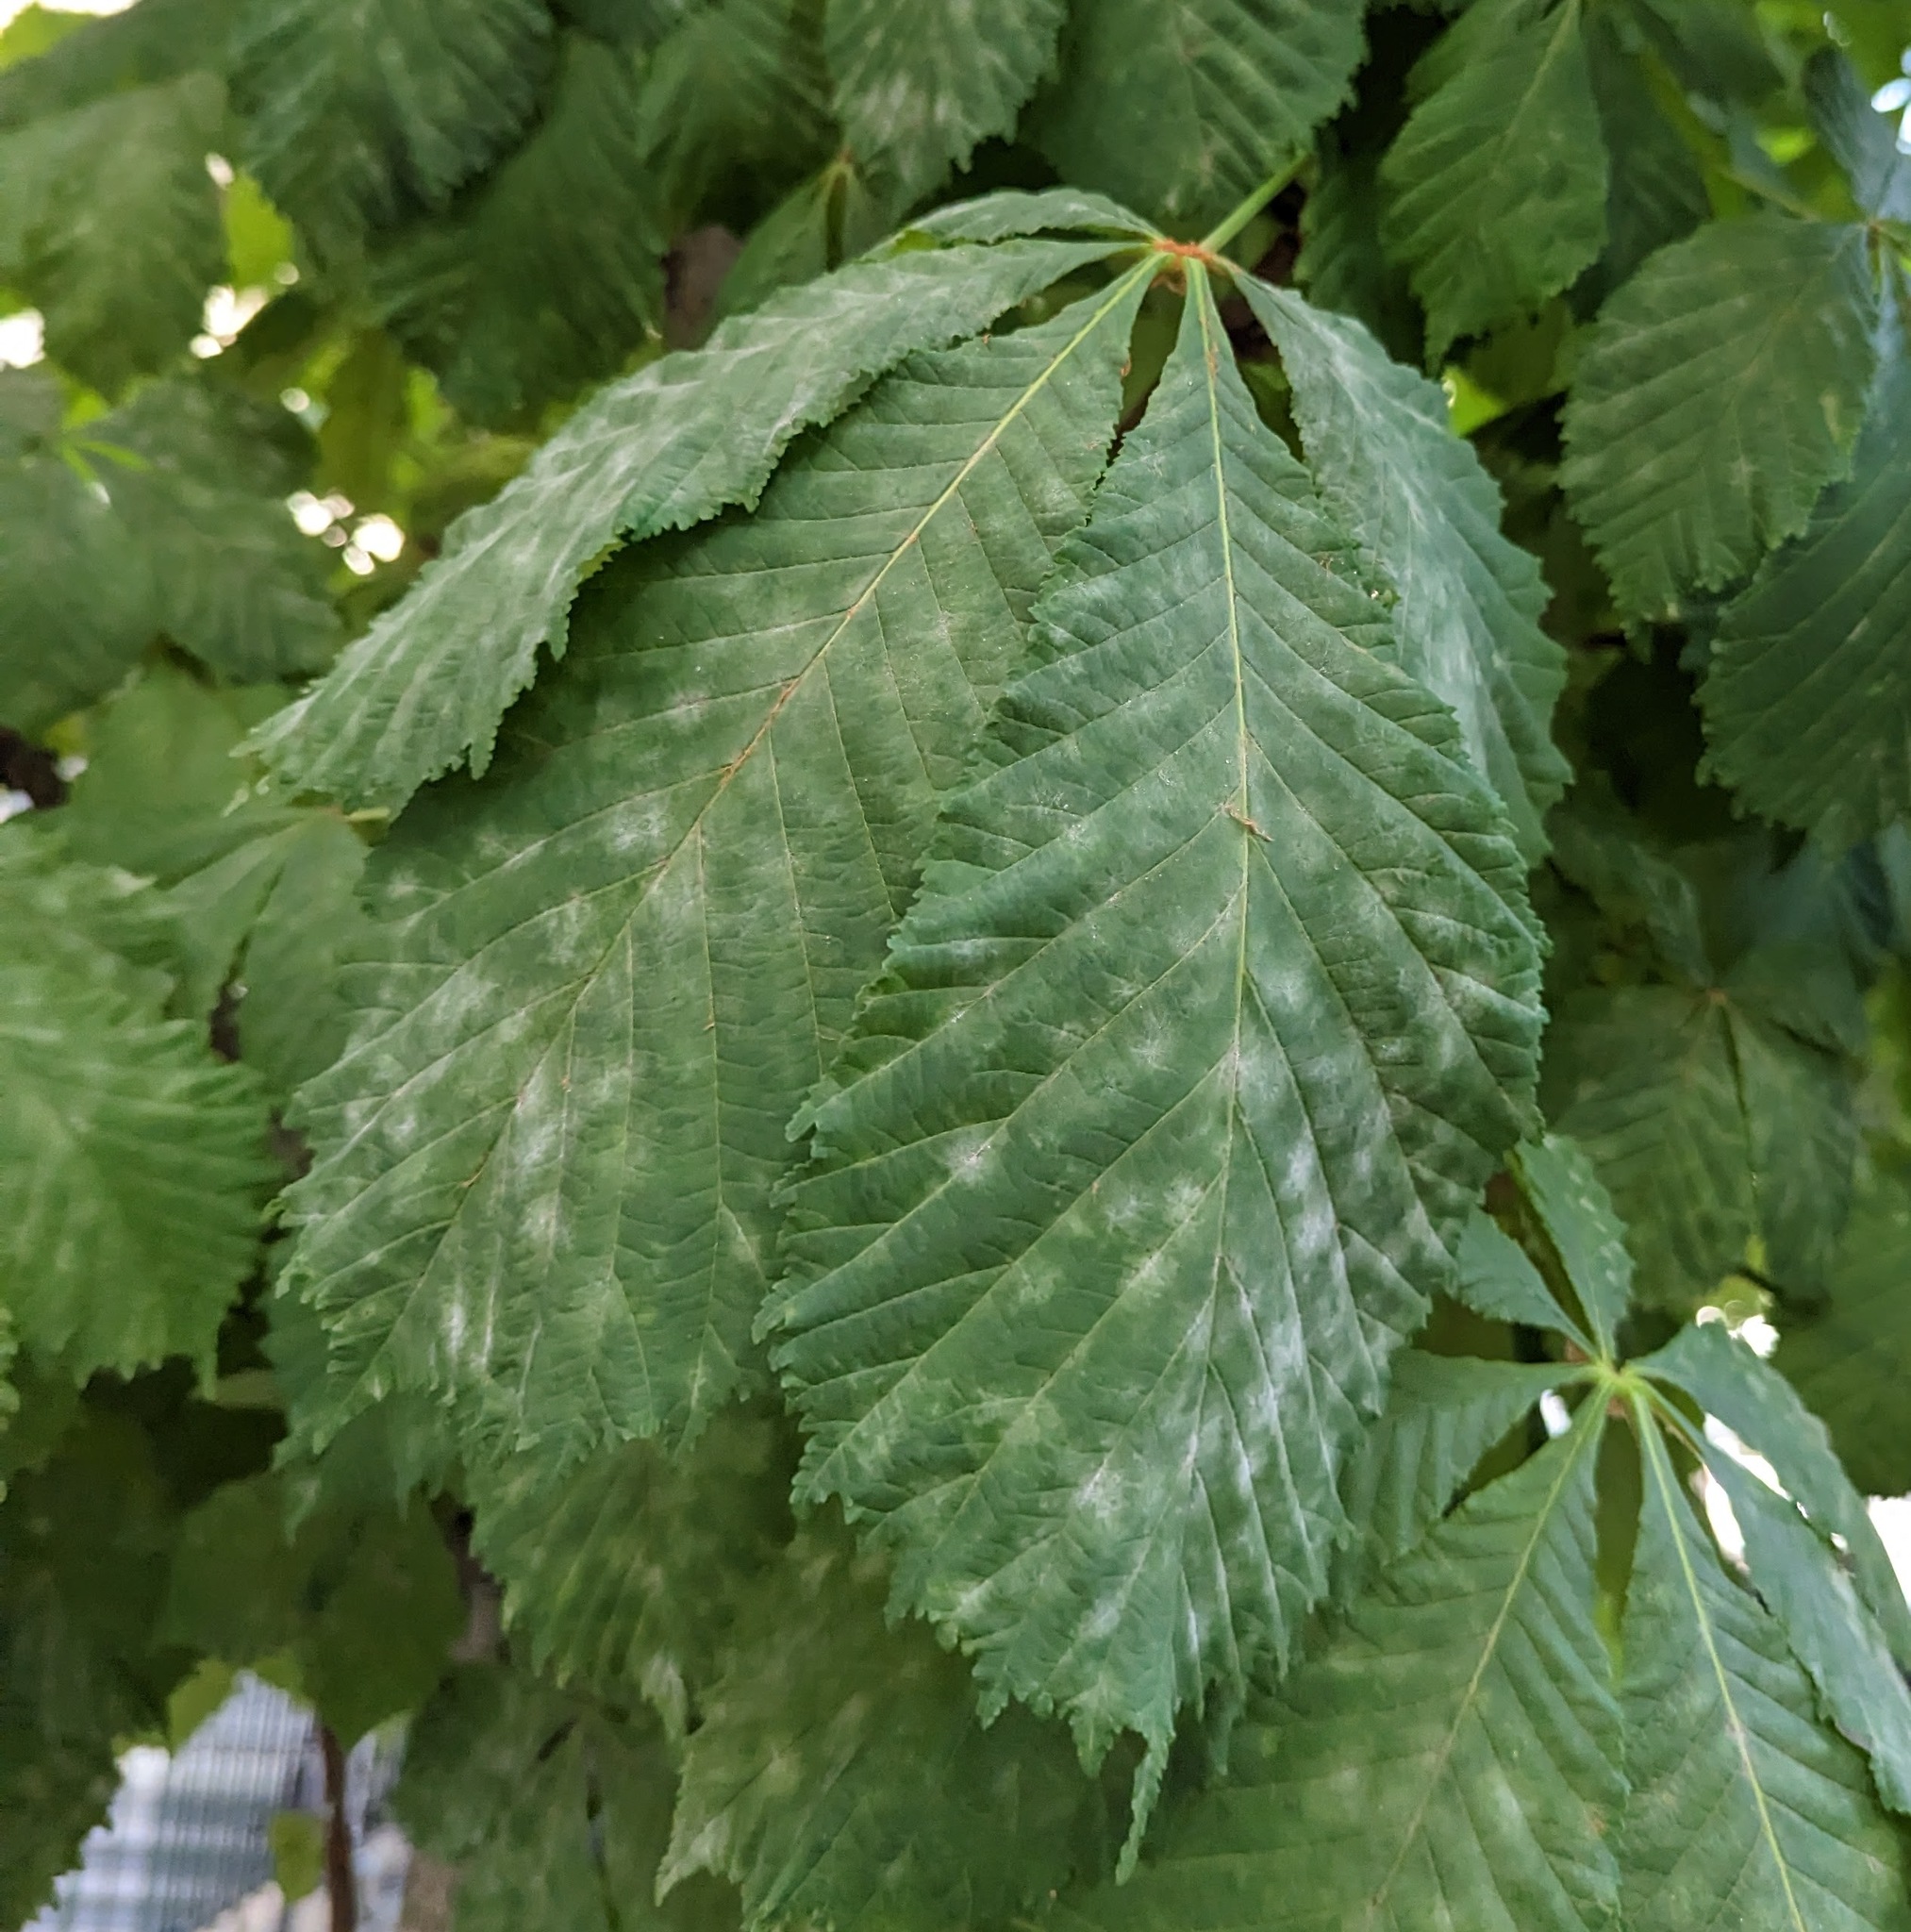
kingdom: Fungi
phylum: Ascomycota
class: Leotiomycetes
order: Helotiales
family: Erysiphaceae
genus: Erysiphe
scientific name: Erysiphe flexuosa
